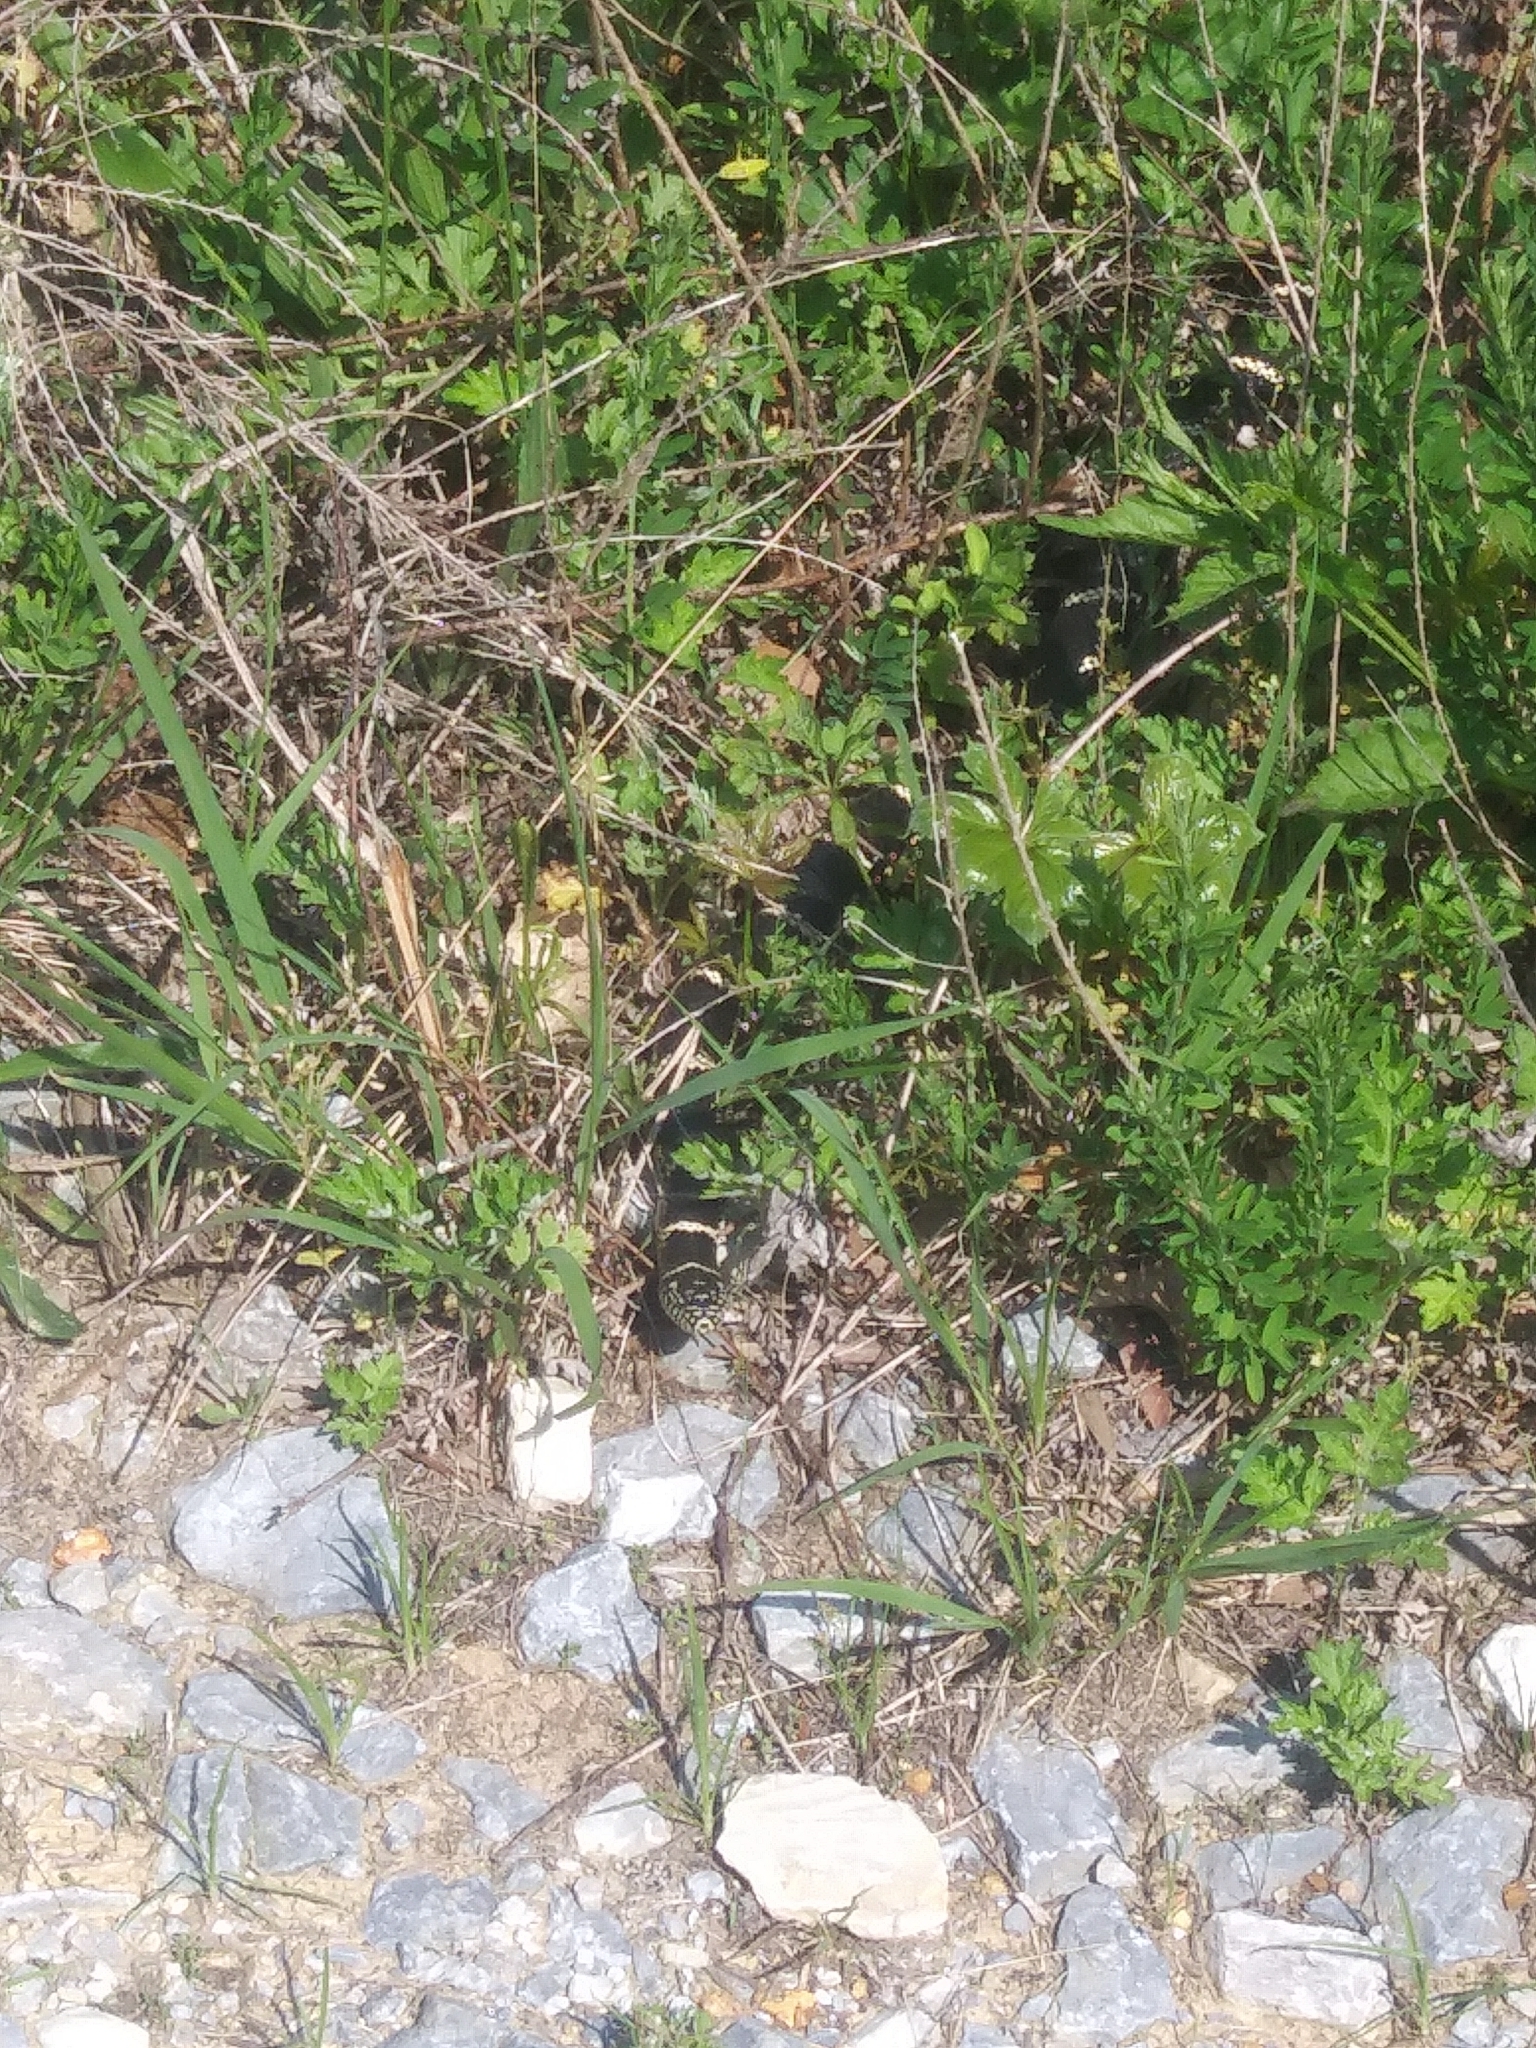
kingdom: Animalia
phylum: Chordata
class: Squamata
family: Colubridae
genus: Lampropeltis
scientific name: Lampropeltis getula
